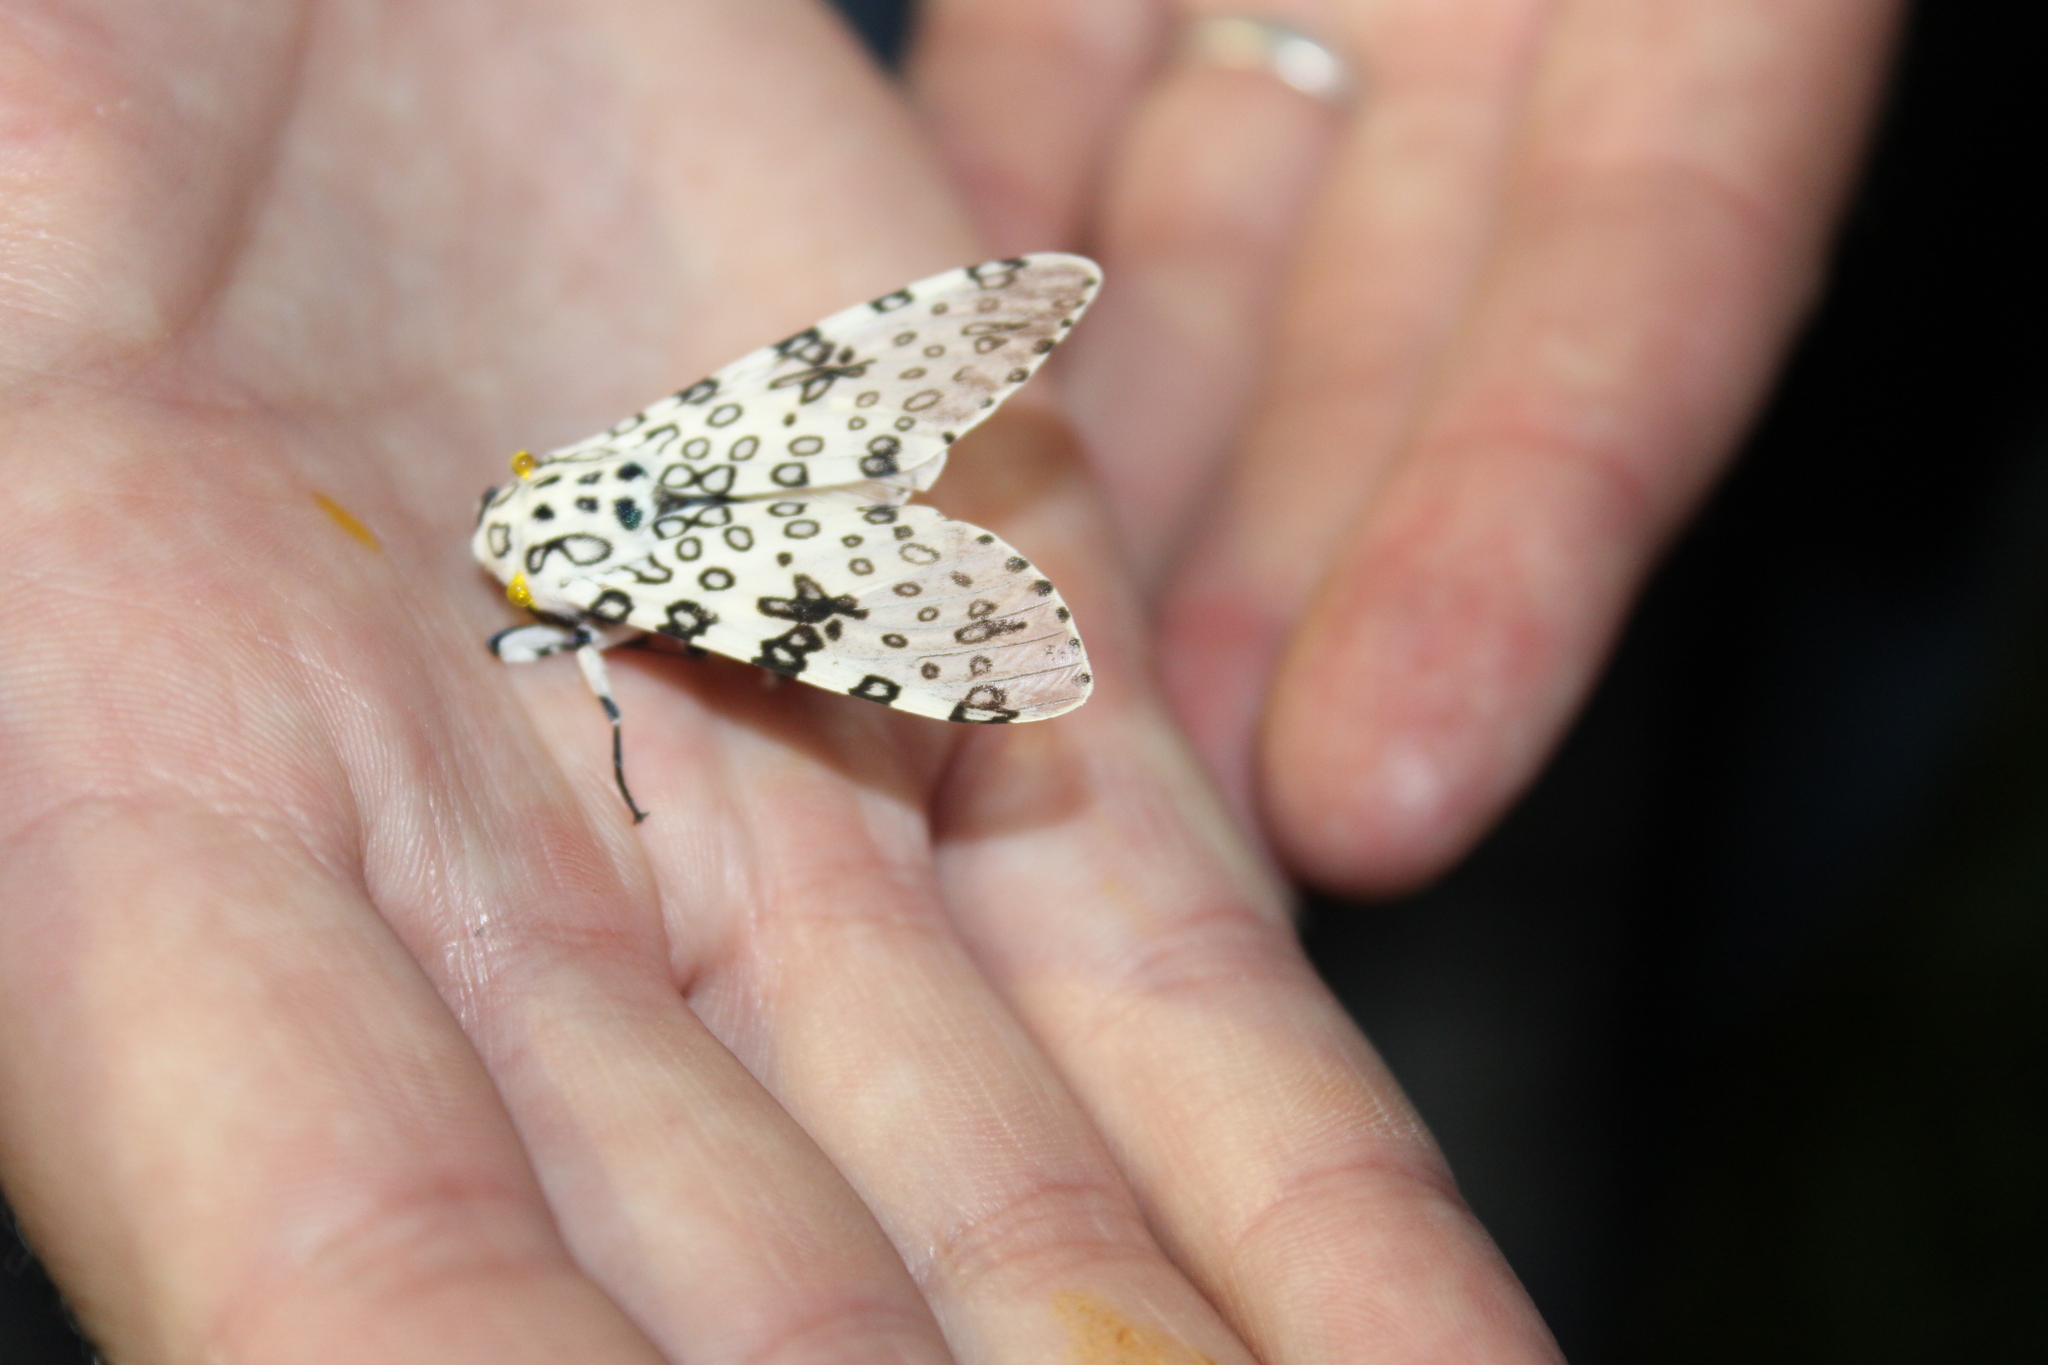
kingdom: Animalia
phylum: Arthropoda
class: Insecta
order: Lepidoptera
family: Erebidae
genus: Hypercompe
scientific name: Hypercompe scribonia
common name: Giant leopard moth
